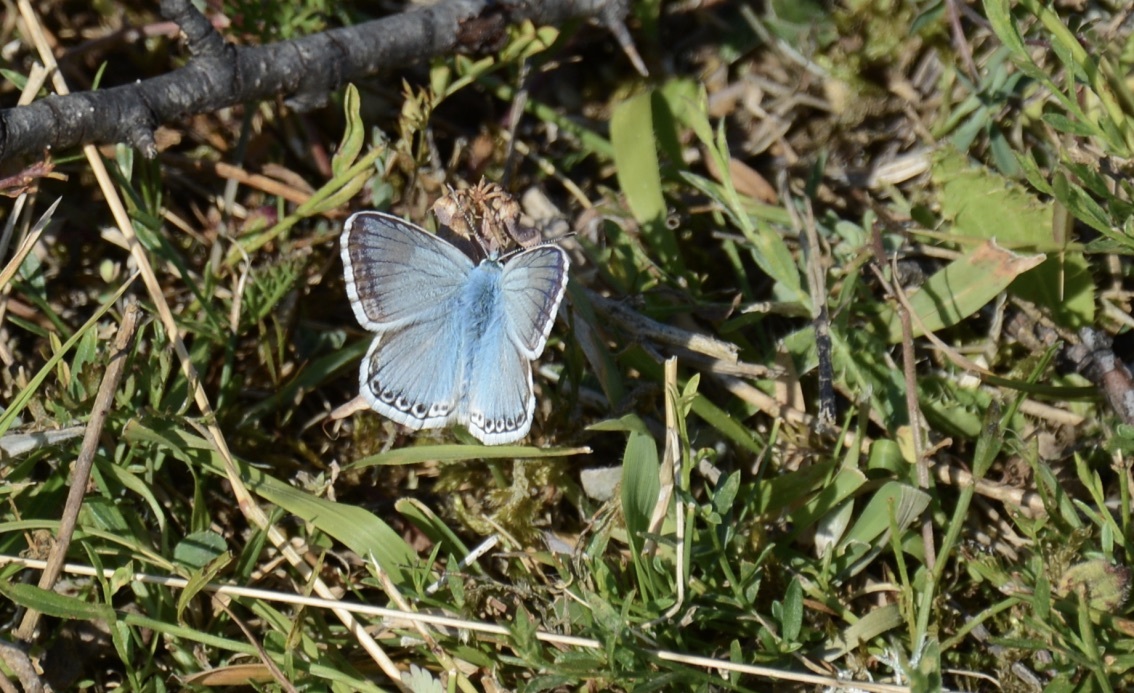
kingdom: Animalia
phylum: Arthropoda
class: Insecta
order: Lepidoptera
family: Lycaenidae
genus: Lysandra
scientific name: Lysandra coridon
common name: Chalkhill blue
